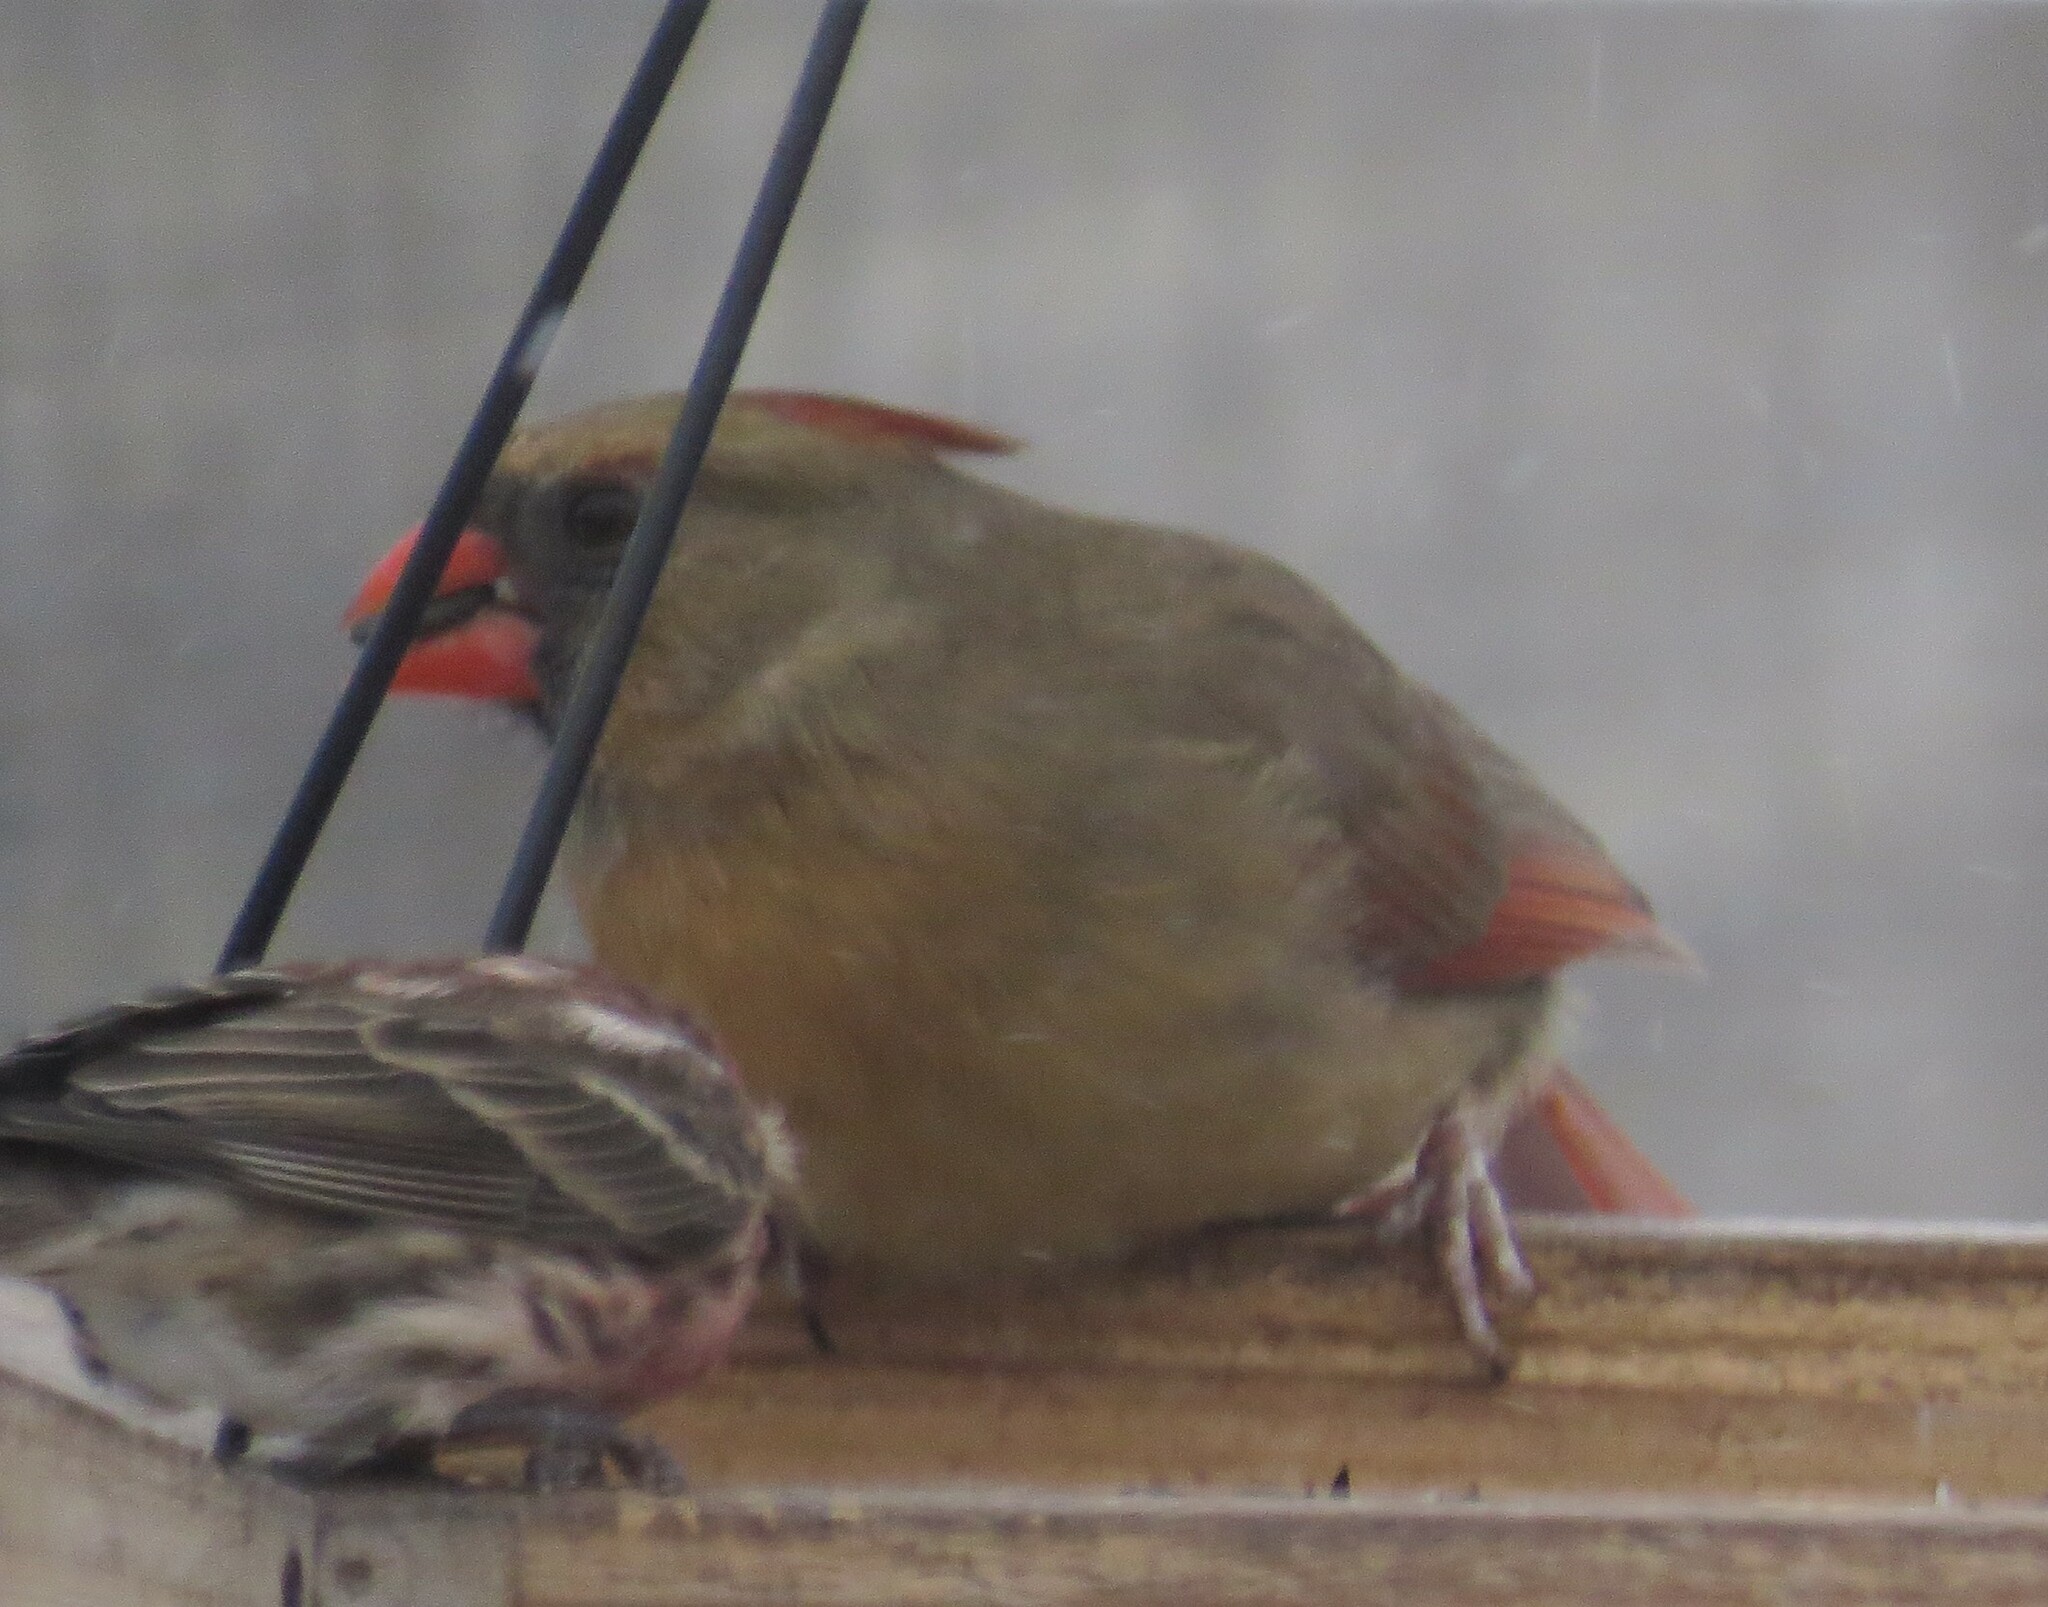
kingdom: Animalia
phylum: Chordata
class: Aves
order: Passeriformes
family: Cardinalidae
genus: Cardinalis
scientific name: Cardinalis cardinalis
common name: Northern cardinal
